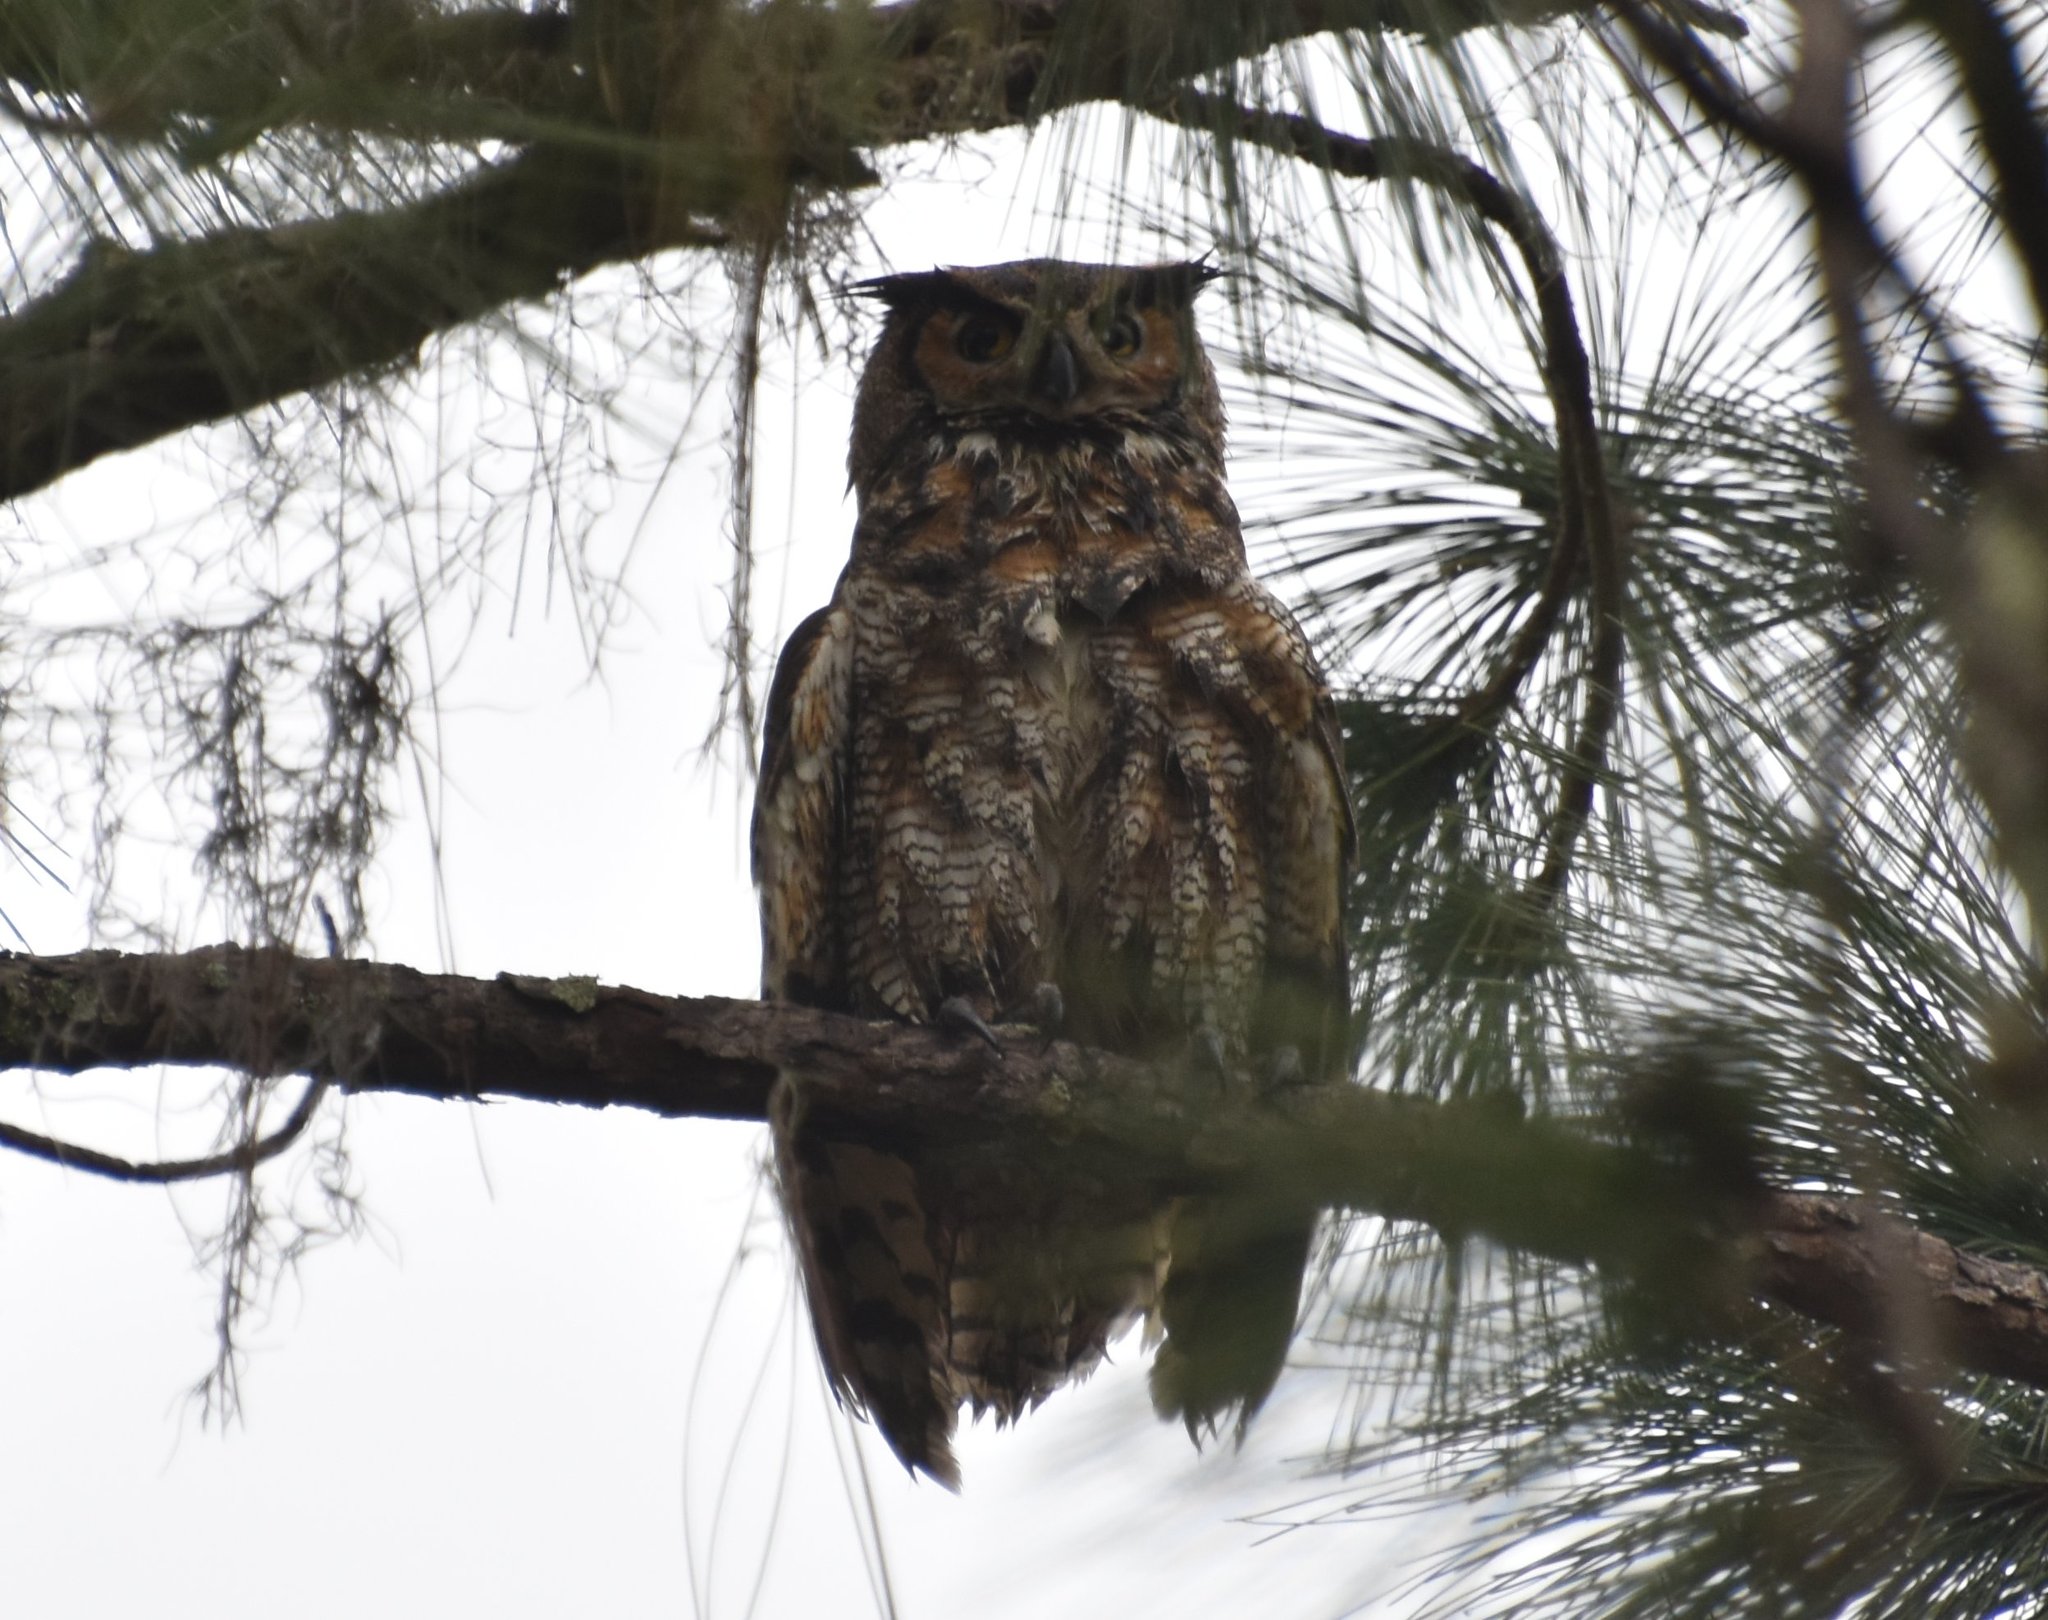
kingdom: Animalia
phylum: Chordata
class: Aves
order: Strigiformes
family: Strigidae
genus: Bubo
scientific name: Bubo virginianus
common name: Great horned owl
